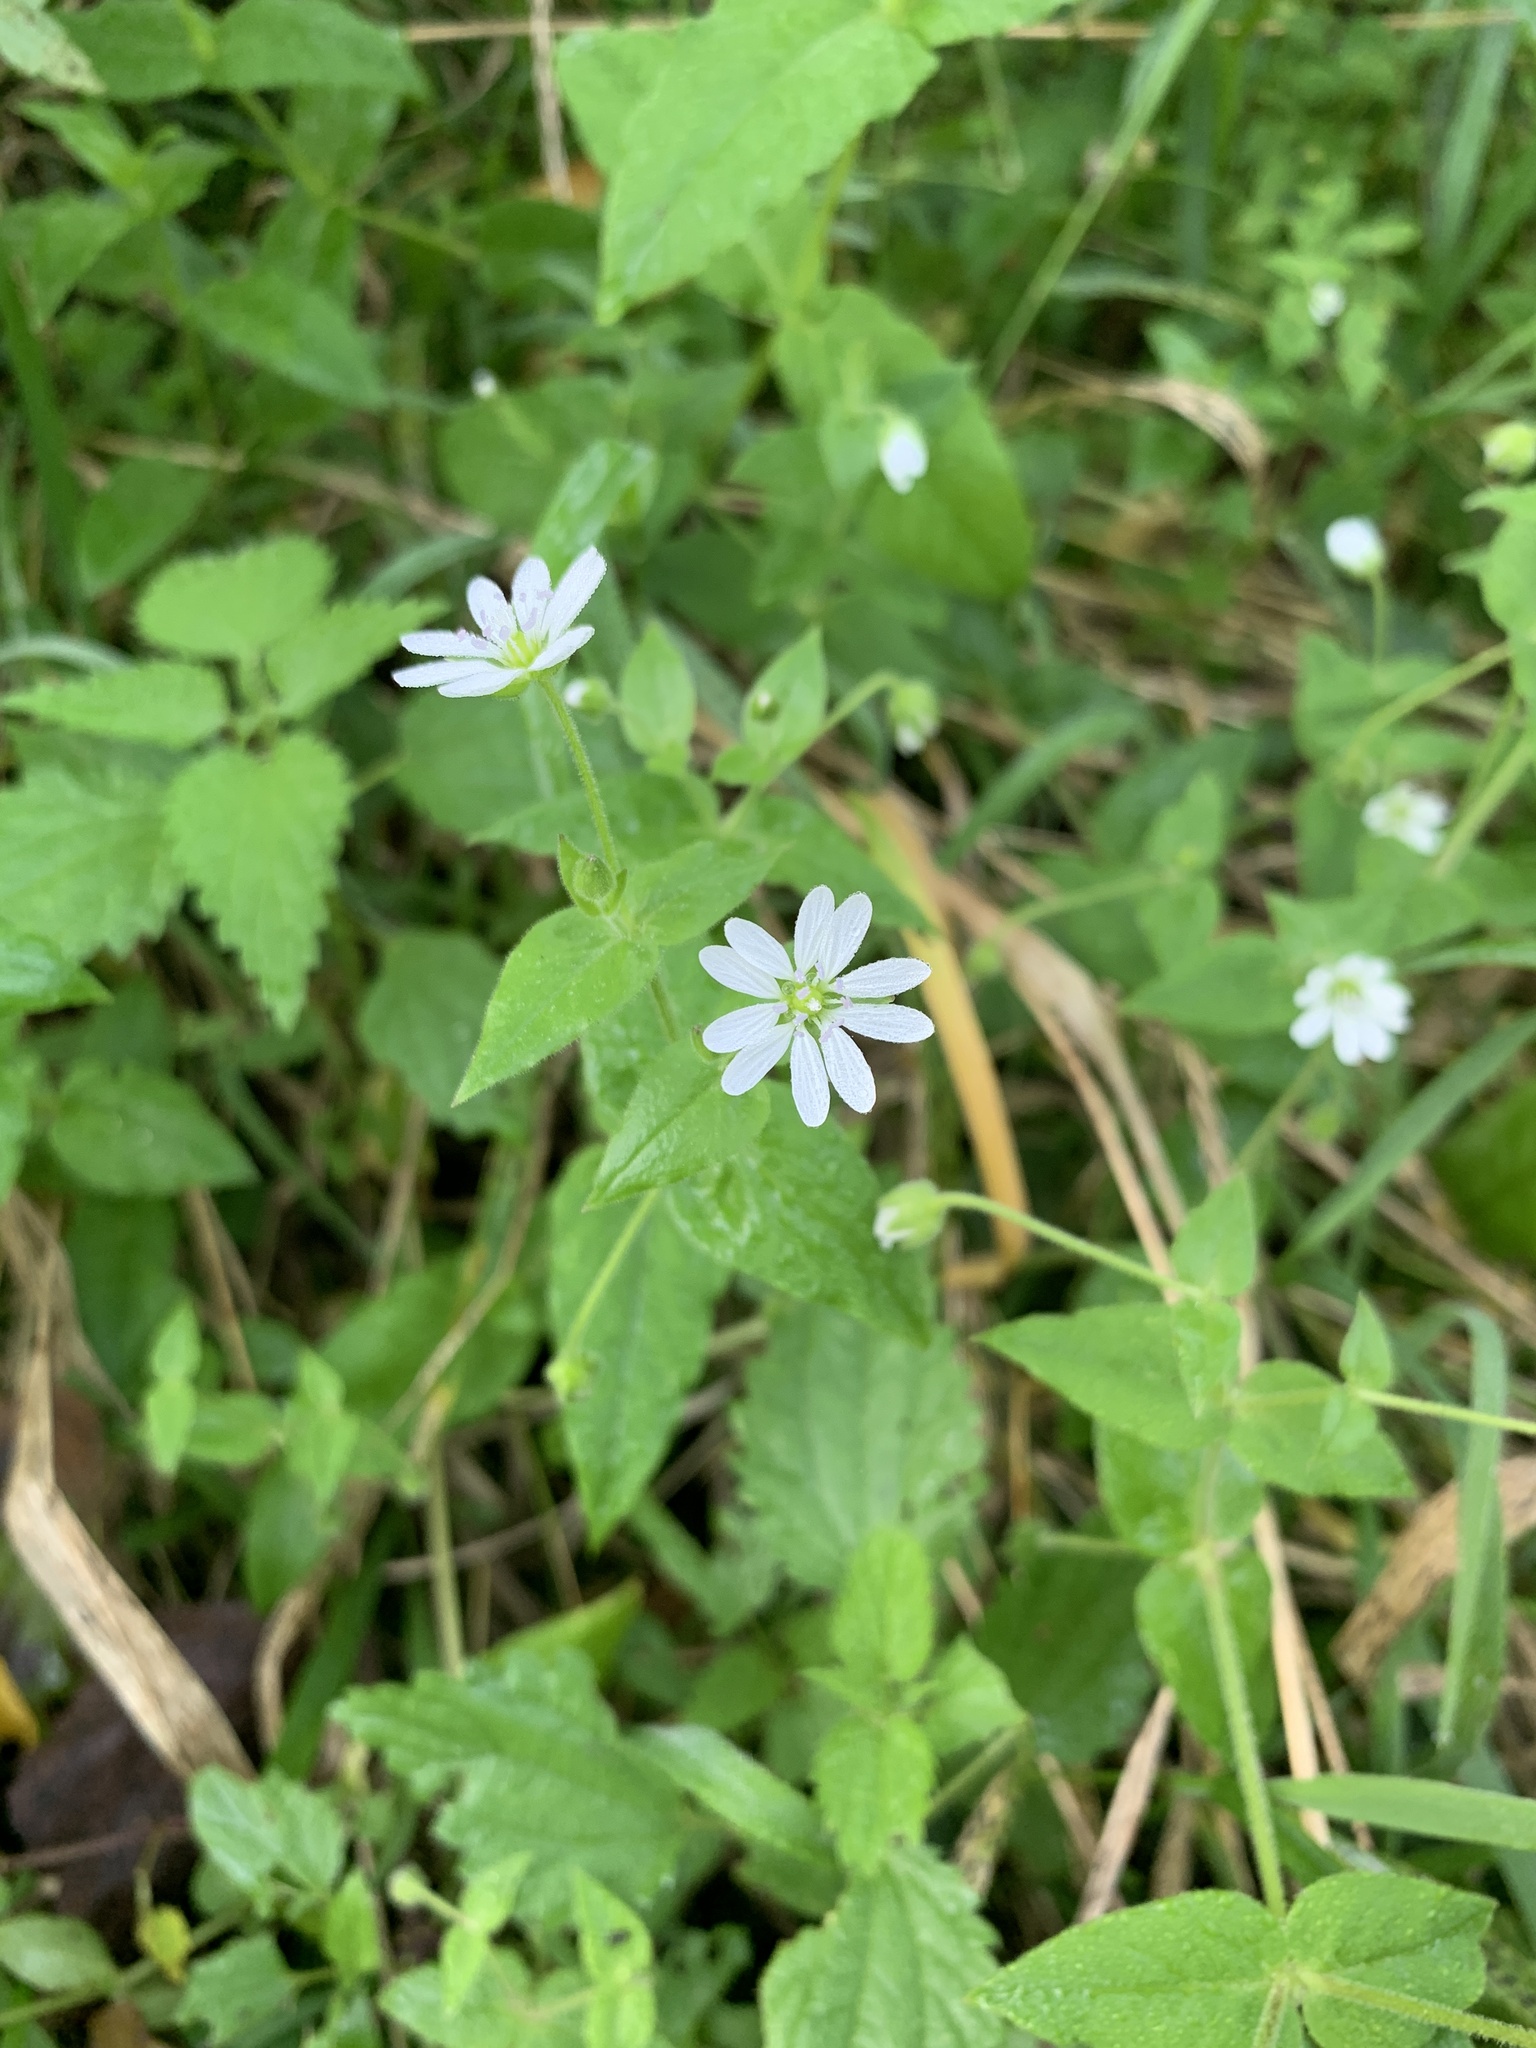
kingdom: Plantae
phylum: Tracheophyta
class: Magnoliopsida
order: Caryophyllales
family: Caryophyllaceae
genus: Stellaria
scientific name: Stellaria aquatica
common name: Water chickweed
